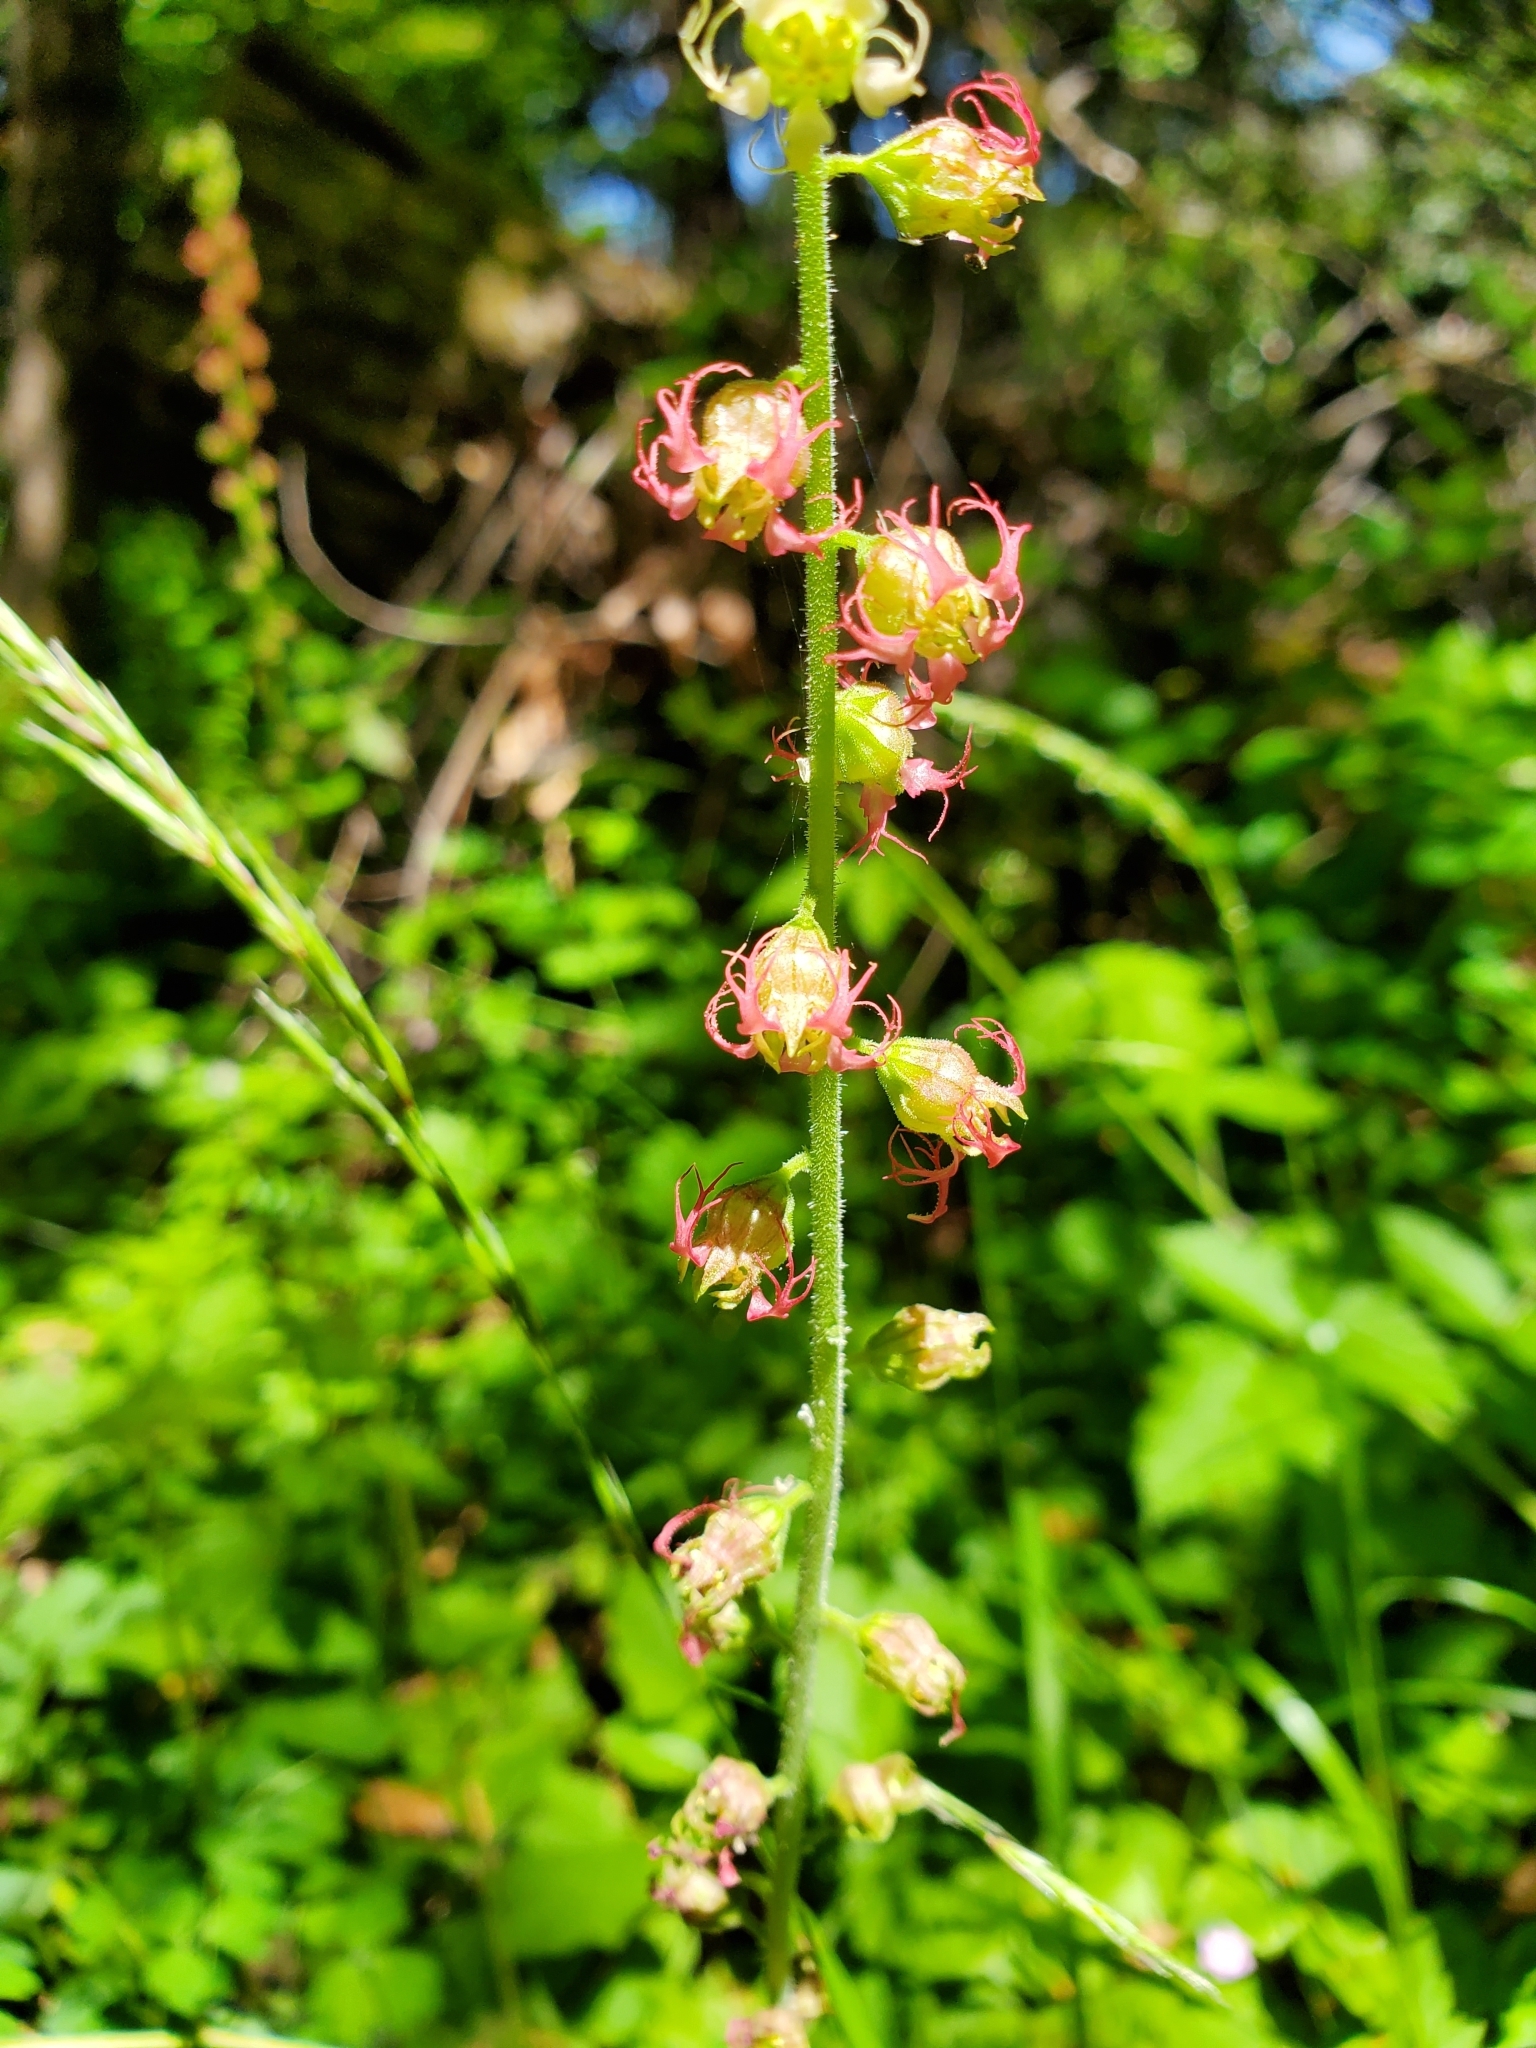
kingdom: Plantae
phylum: Tracheophyta
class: Magnoliopsida
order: Saxifragales
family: Saxifragaceae
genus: Tellima
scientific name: Tellima grandiflora
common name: Fringecups
